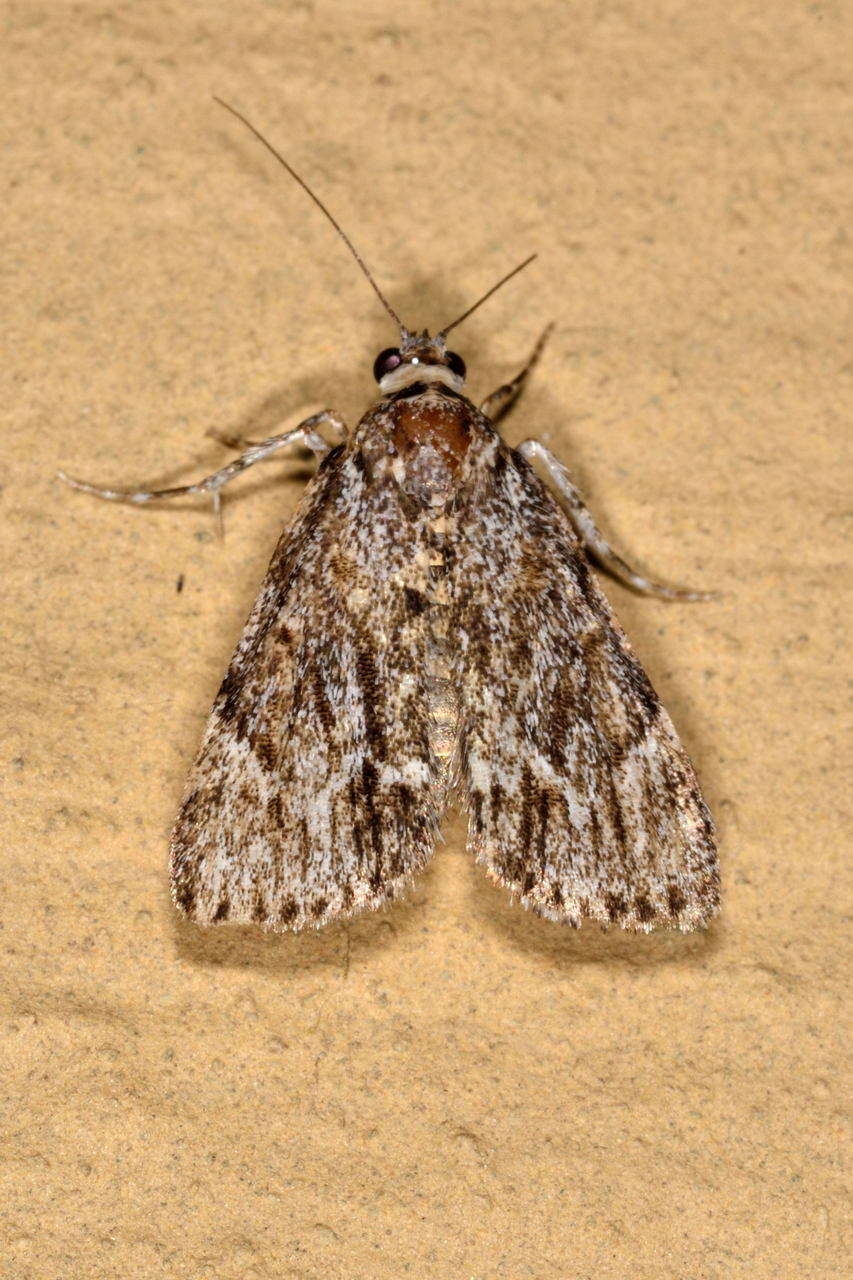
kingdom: Animalia
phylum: Arthropoda
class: Insecta
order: Lepidoptera
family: Pyralidae
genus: Spectrotrota
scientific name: Spectrotrota fimbrialis
